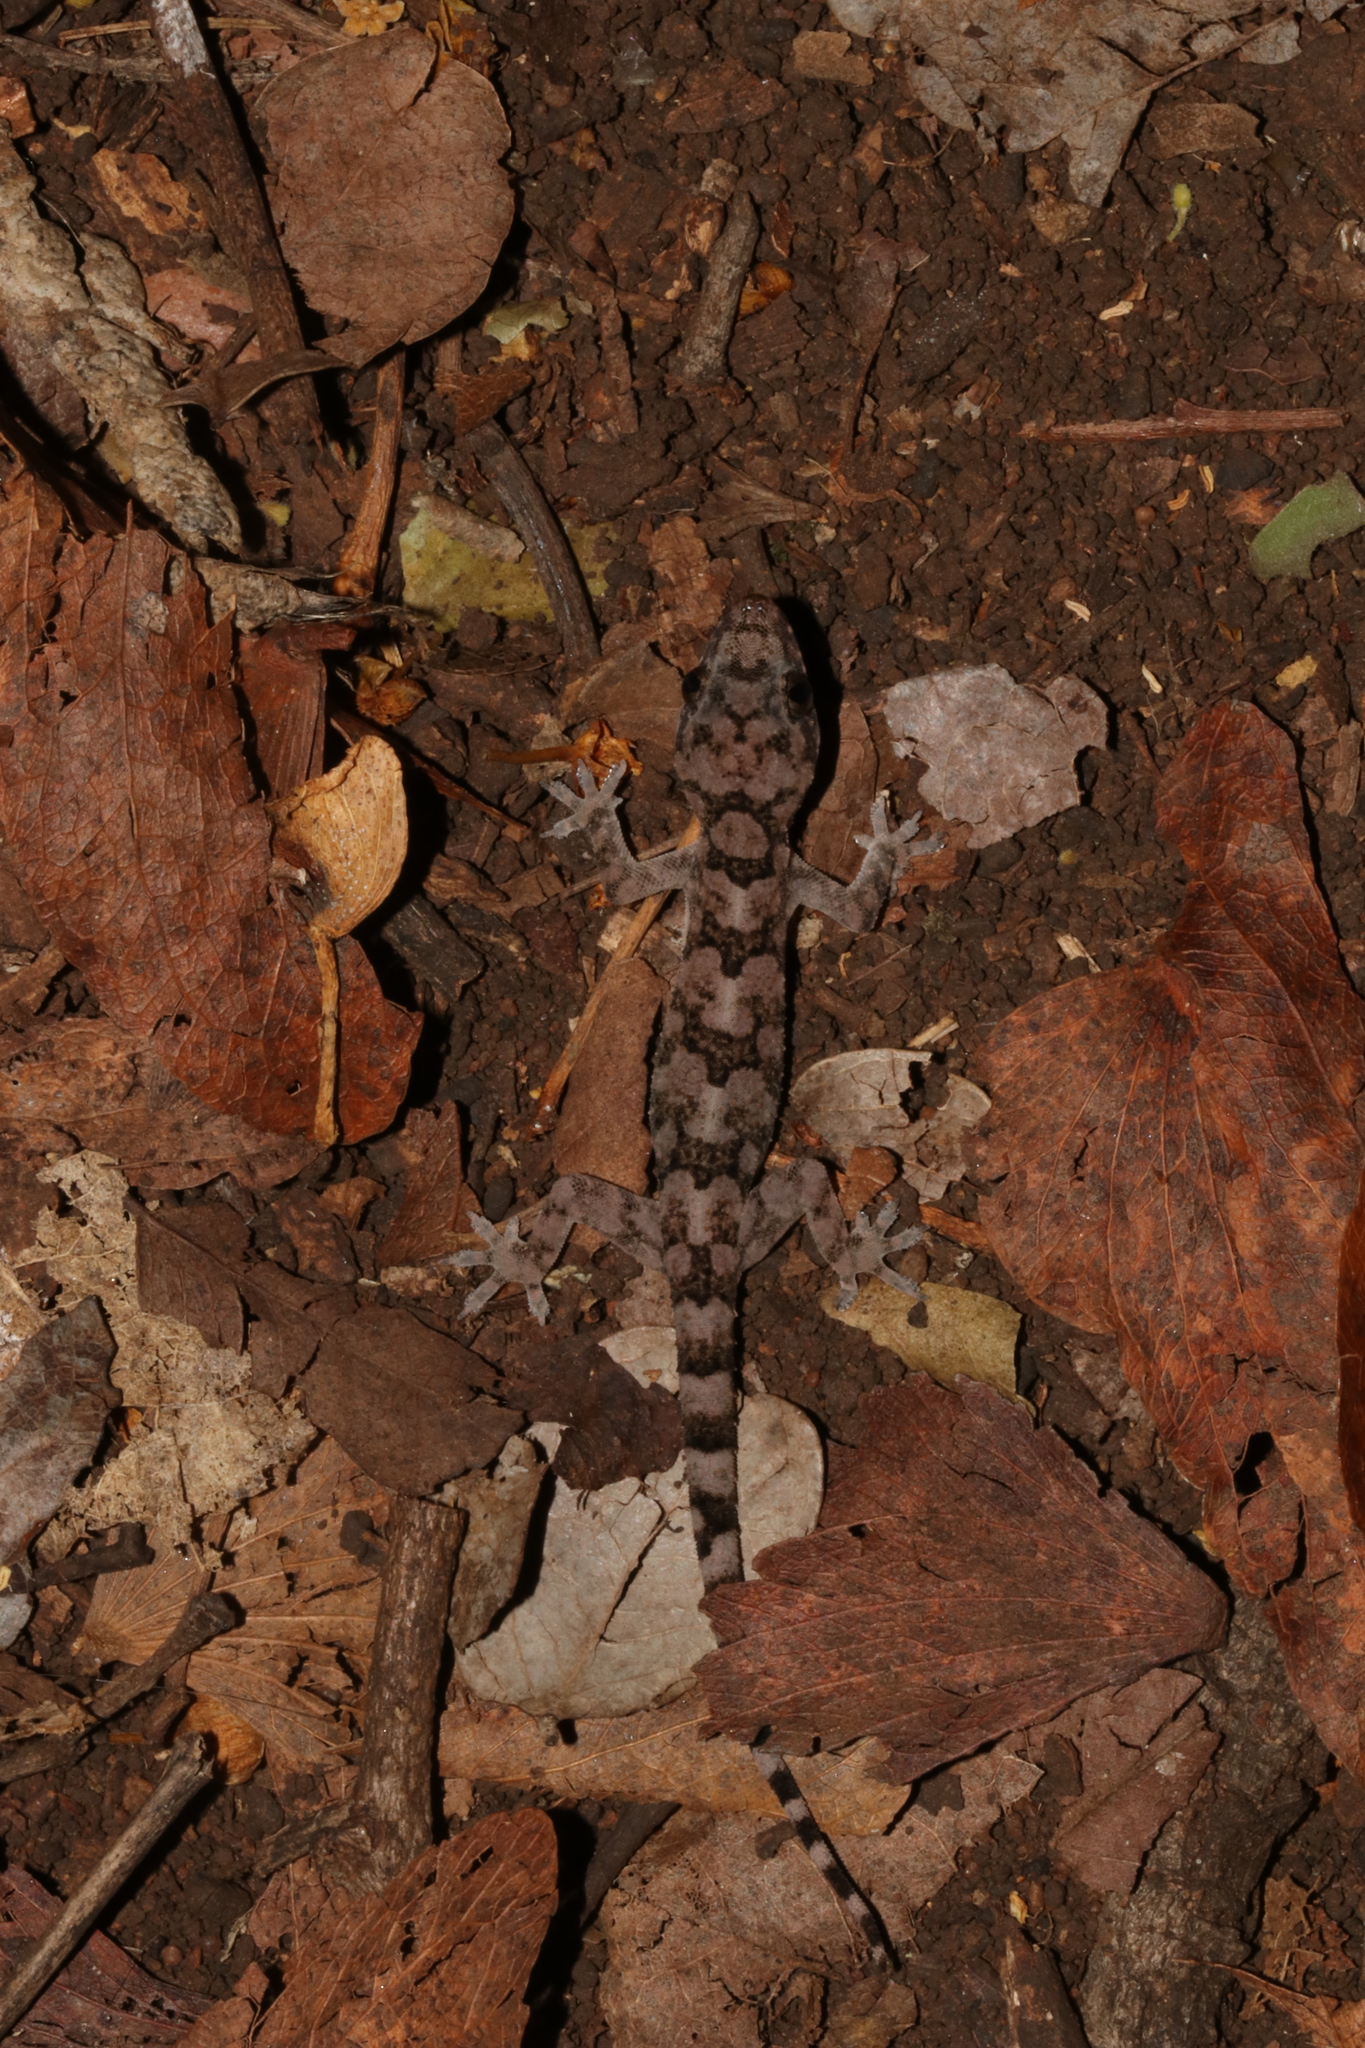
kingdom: Animalia
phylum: Chordata
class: Squamata
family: Gekkonidae
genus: Hemidactylus
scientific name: Hemidactylus mabouia
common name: House gecko
